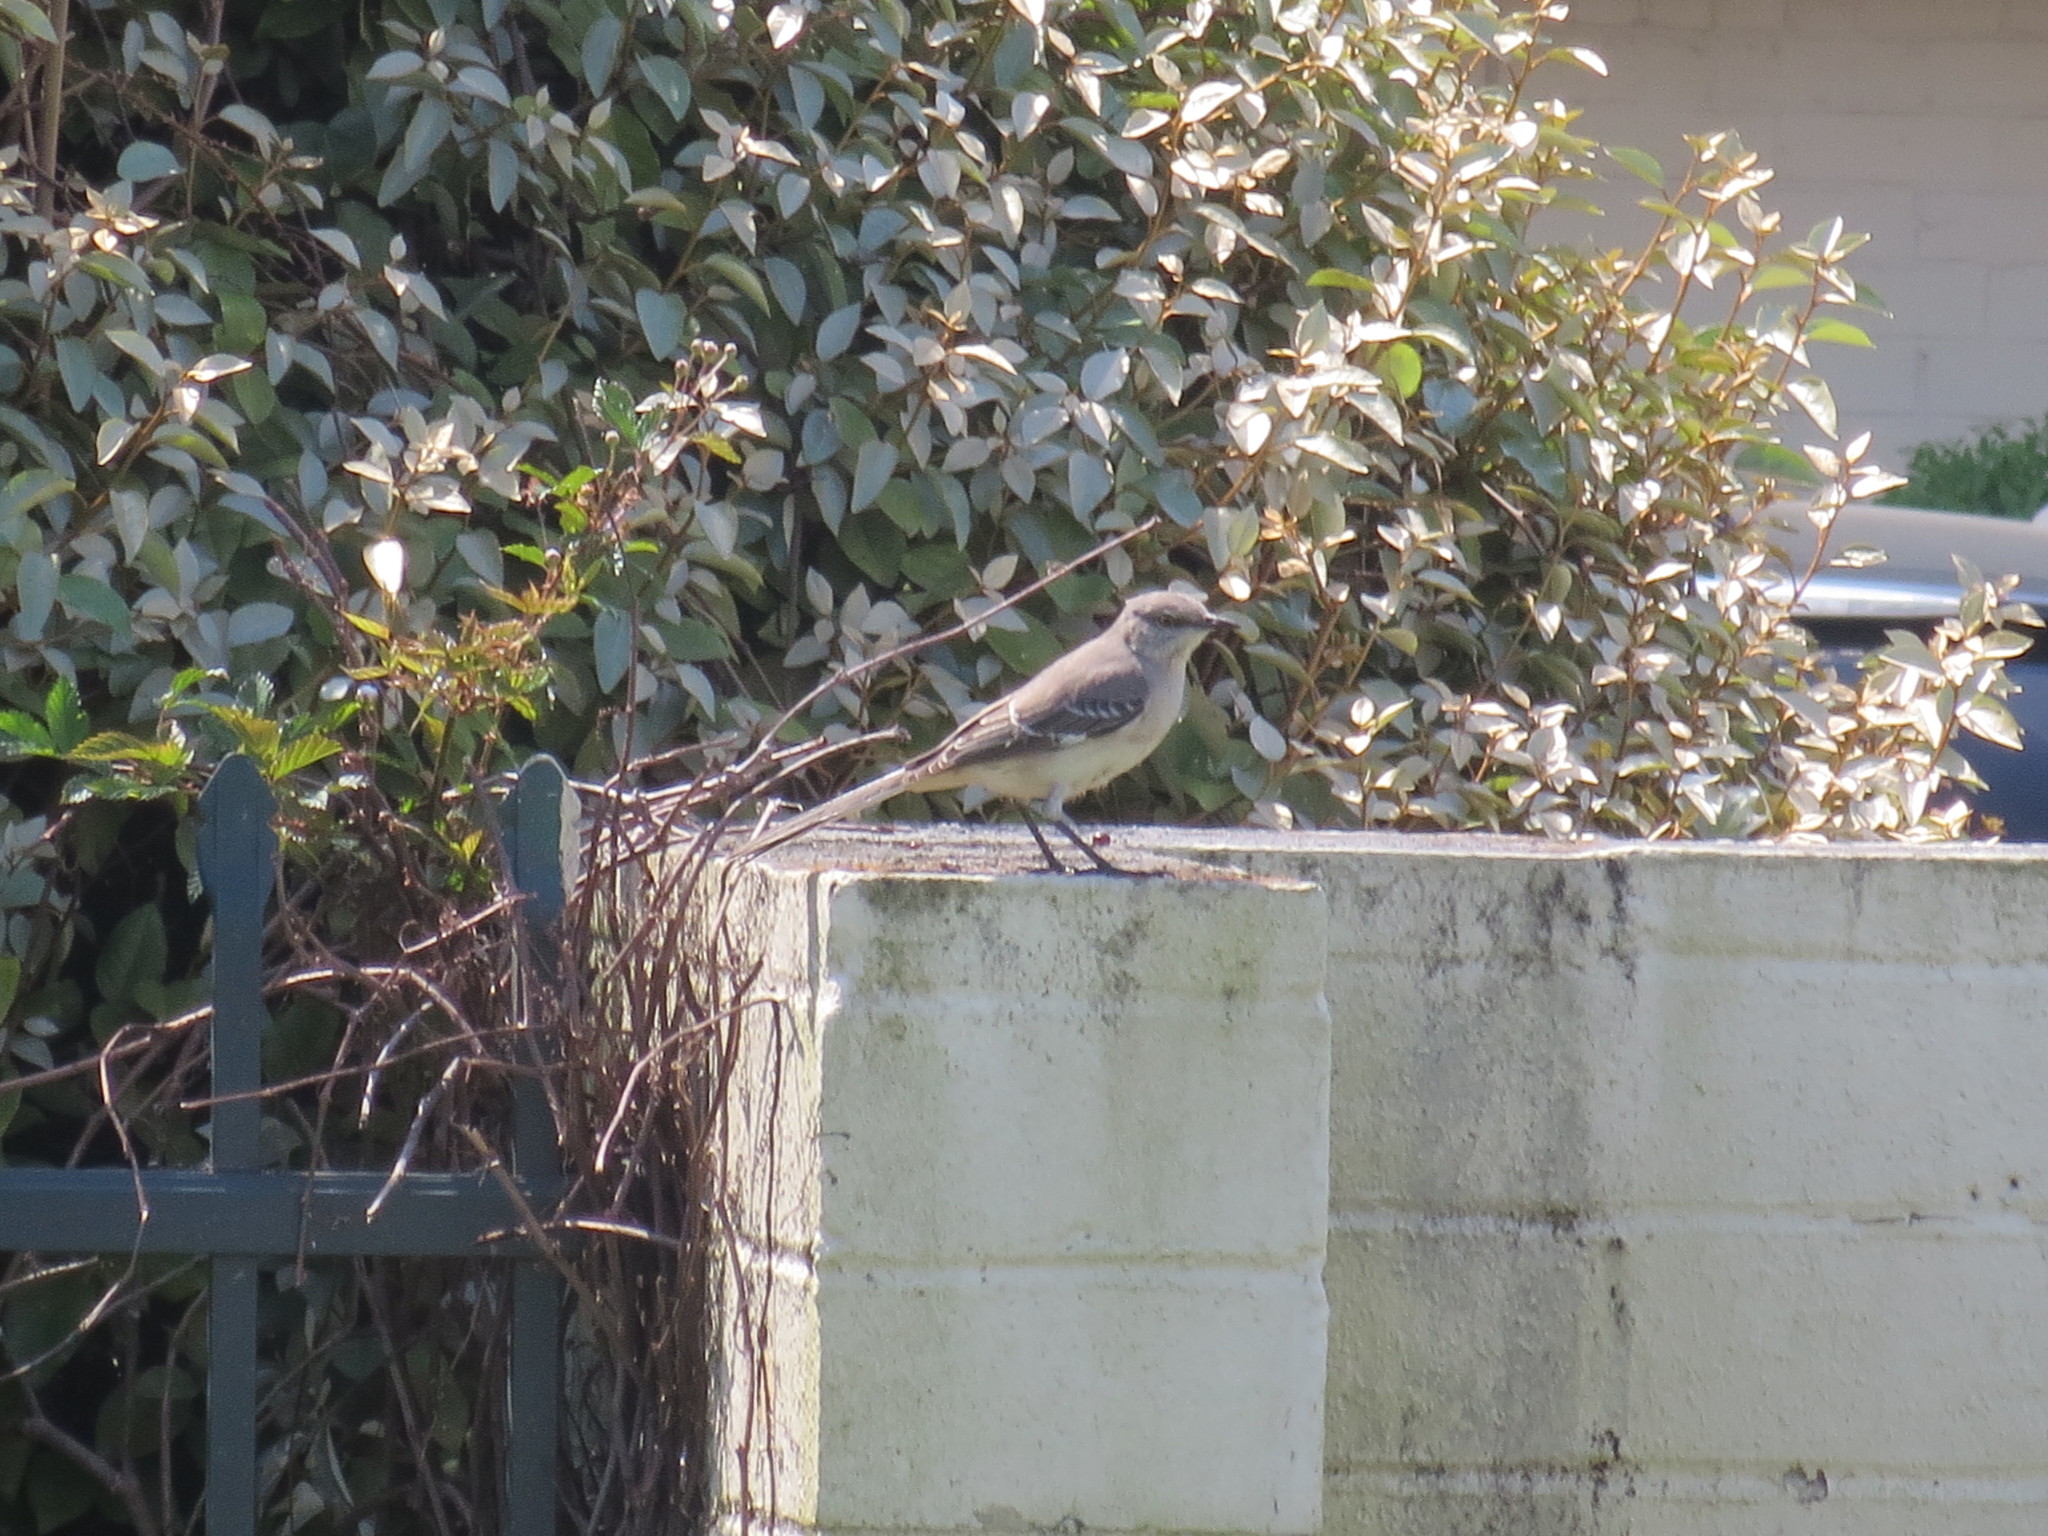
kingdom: Animalia
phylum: Chordata
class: Aves
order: Passeriformes
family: Mimidae
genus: Mimus
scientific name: Mimus polyglottos
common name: Northern mockingbird
